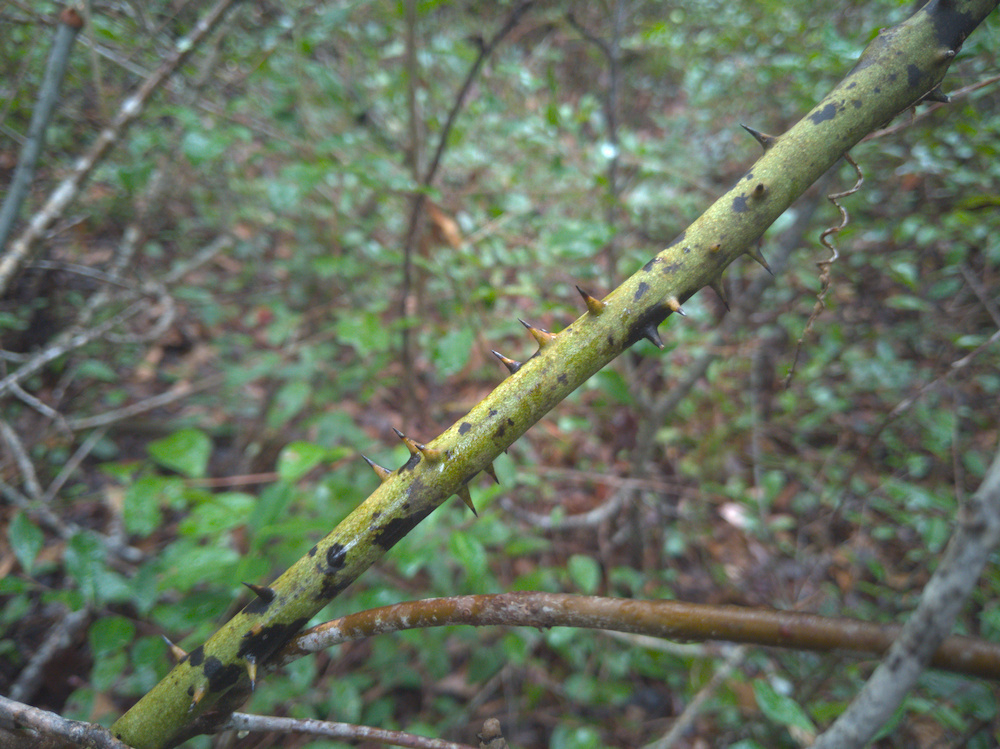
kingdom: Plantae
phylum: Tracheophyta
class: Liliopsida
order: Liliales
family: Smilacaceae
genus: Smilax
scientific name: Smilax laurifolia
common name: Bamboovine
